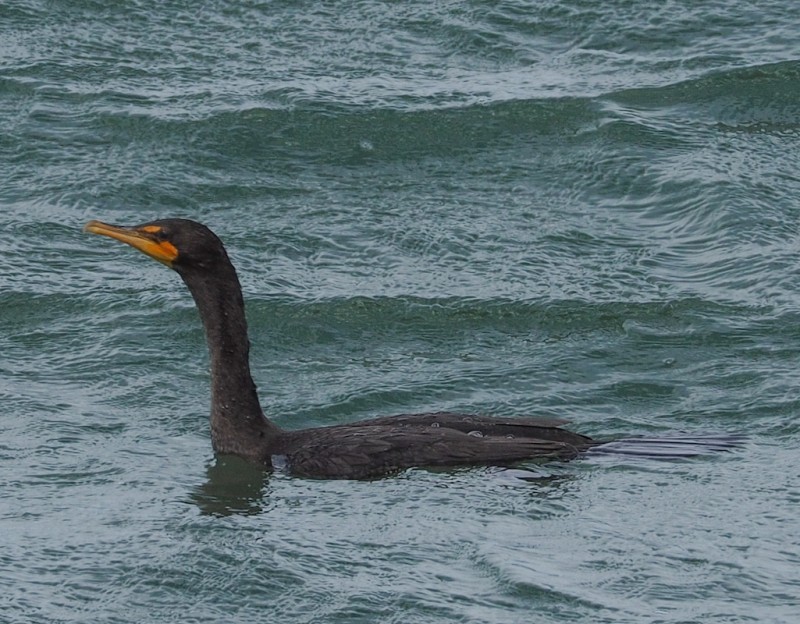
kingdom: Animalia
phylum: Chordata
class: Aves
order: Suliformes
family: Phalacrocoracidae
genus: Phalacrocorax
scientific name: Phalacrocorax auritus
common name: Double-crested cormorant
